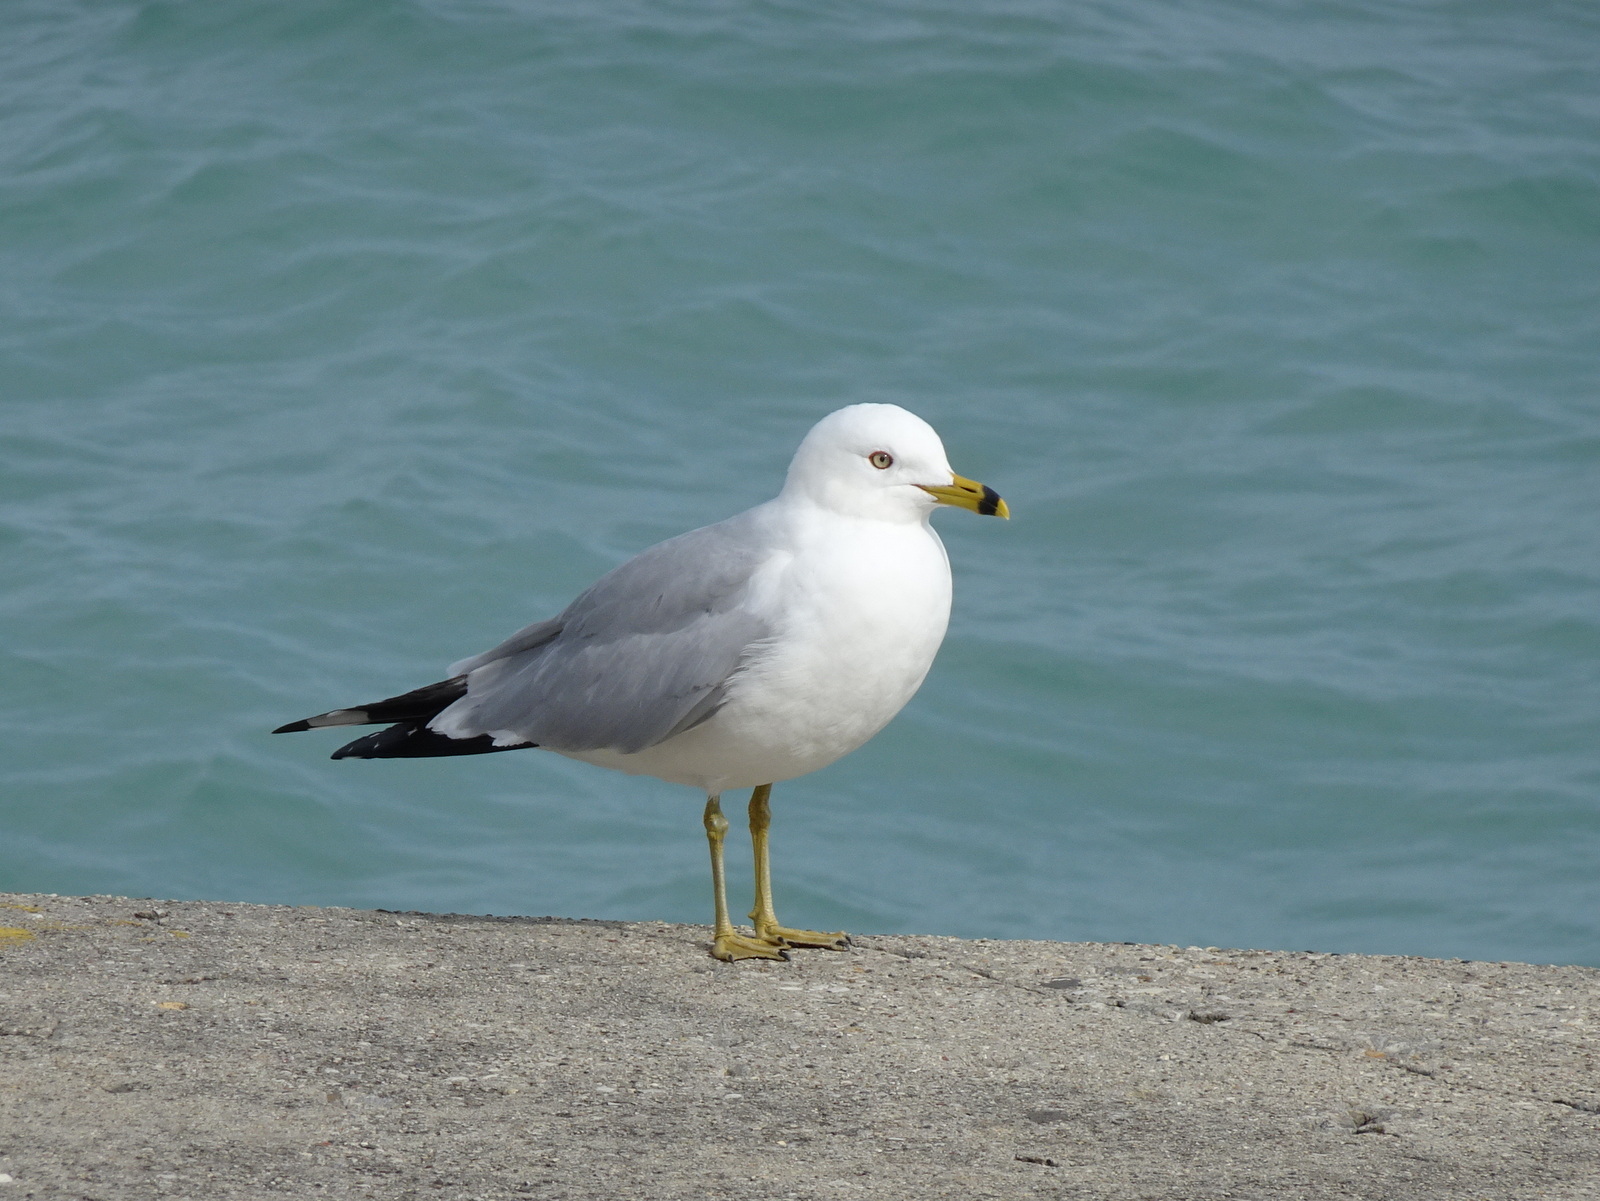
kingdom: Animalia
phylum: Chordata
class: Aves
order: Charadriiformes
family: Laridae
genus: Larus
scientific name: Larus delawarensis
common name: Ring-billed gull
